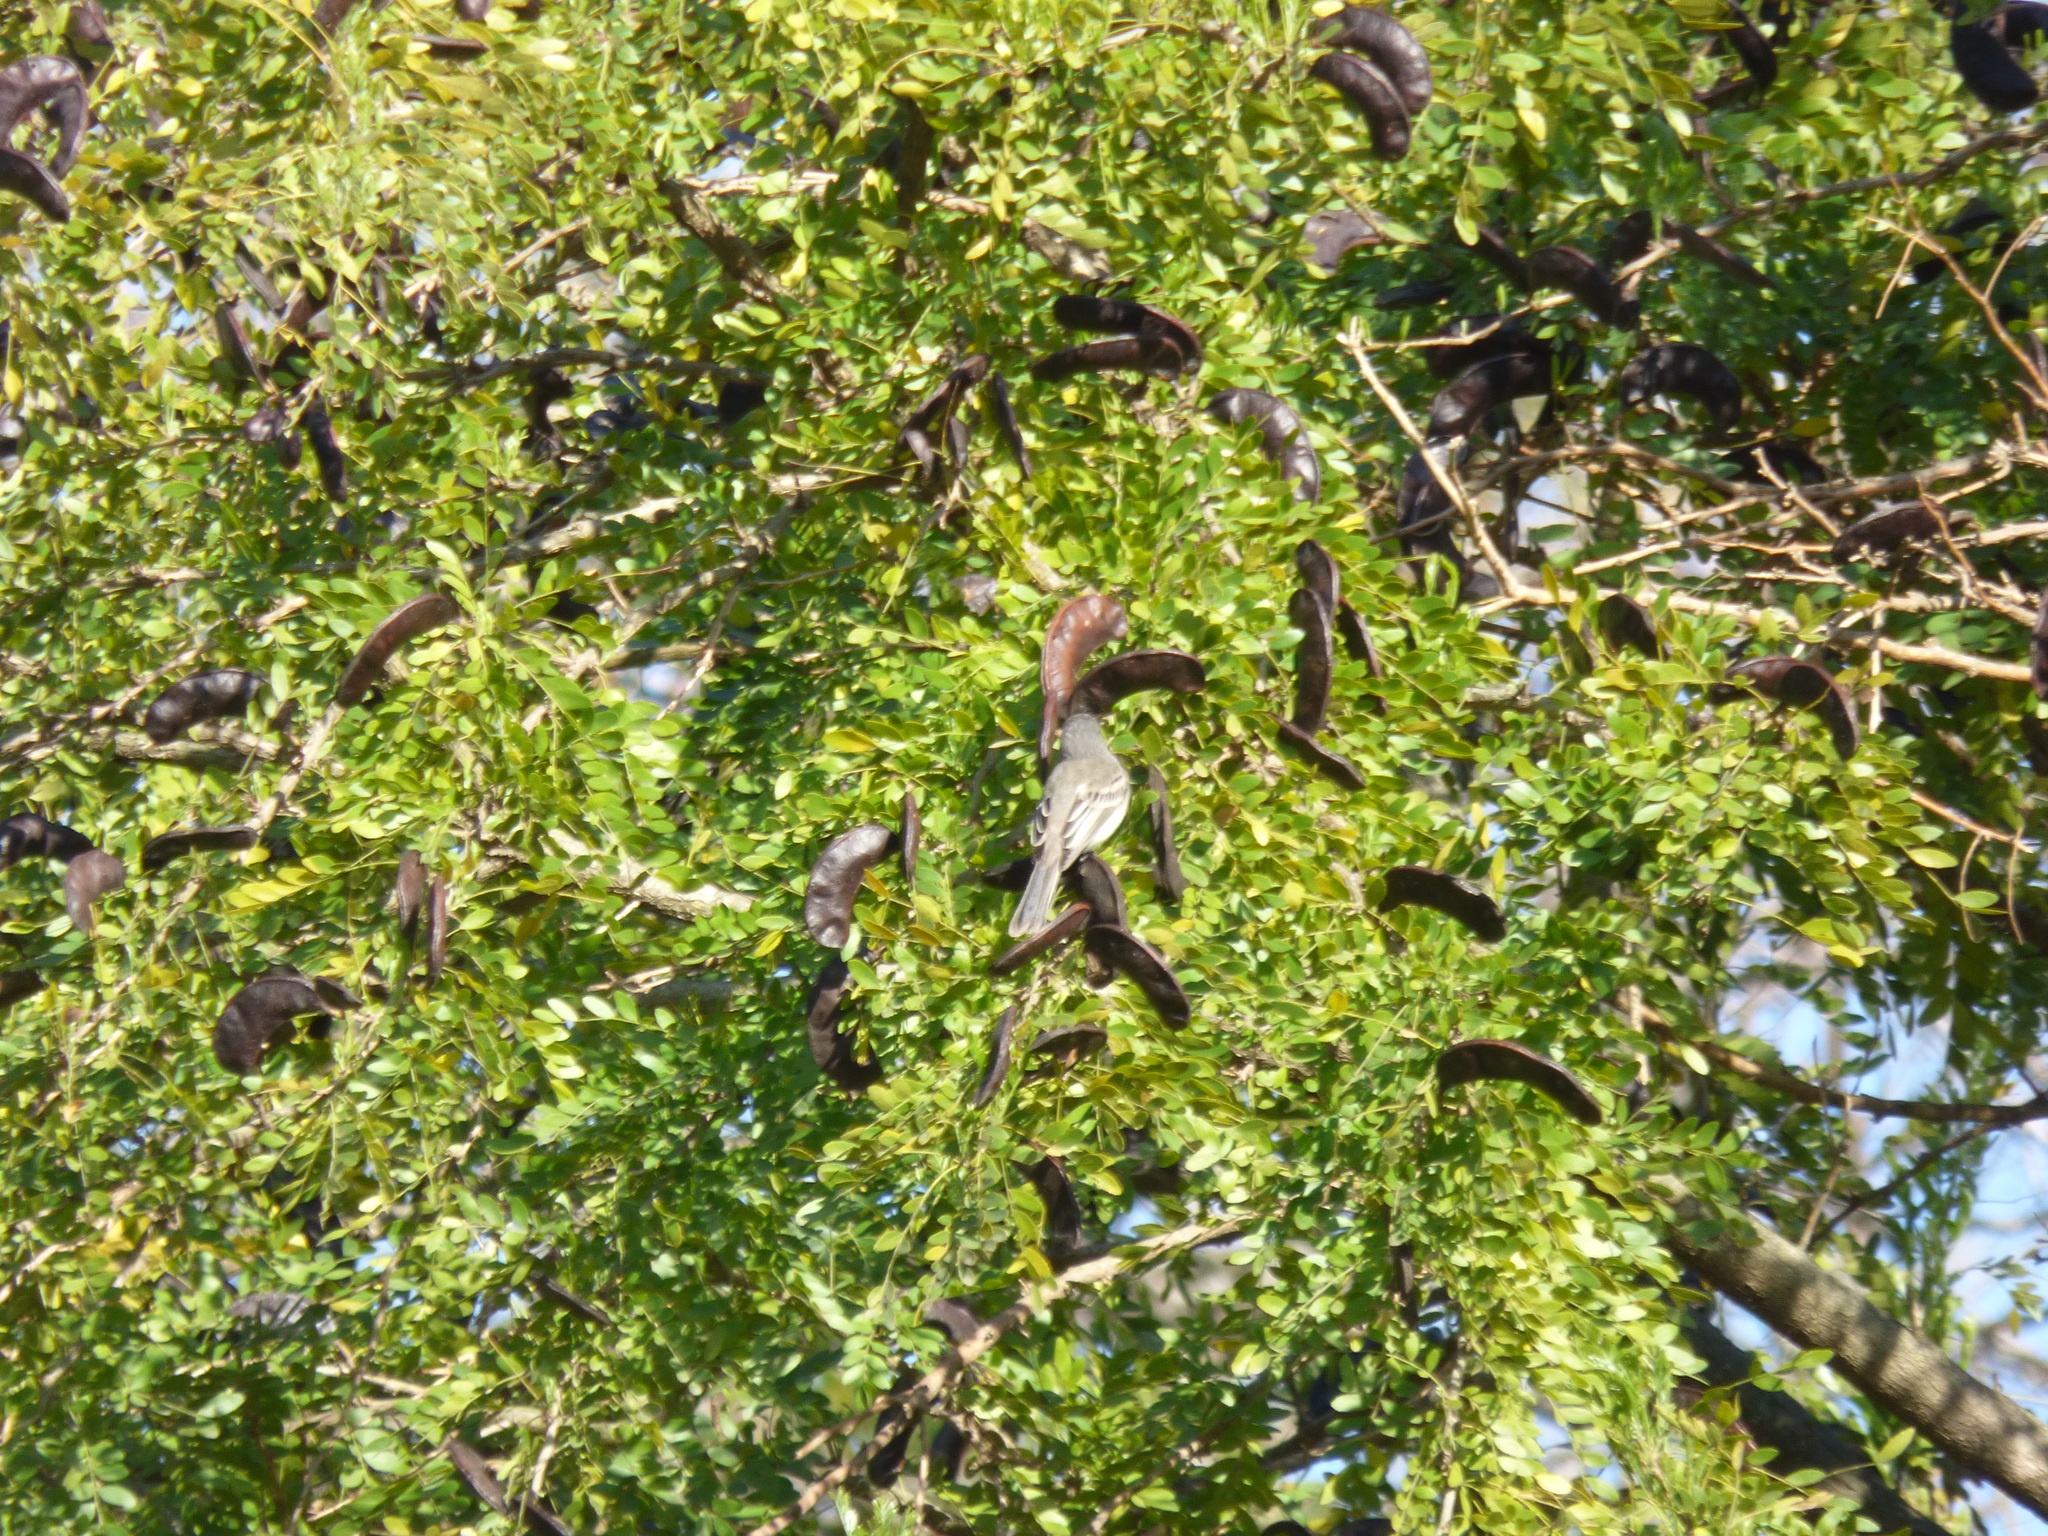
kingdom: Animalia
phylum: Chordata
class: Aves
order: Passeriformes
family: Tyrannidae
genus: Suiriri
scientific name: Suiriri suiriri
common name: Suiriri flycatcher
